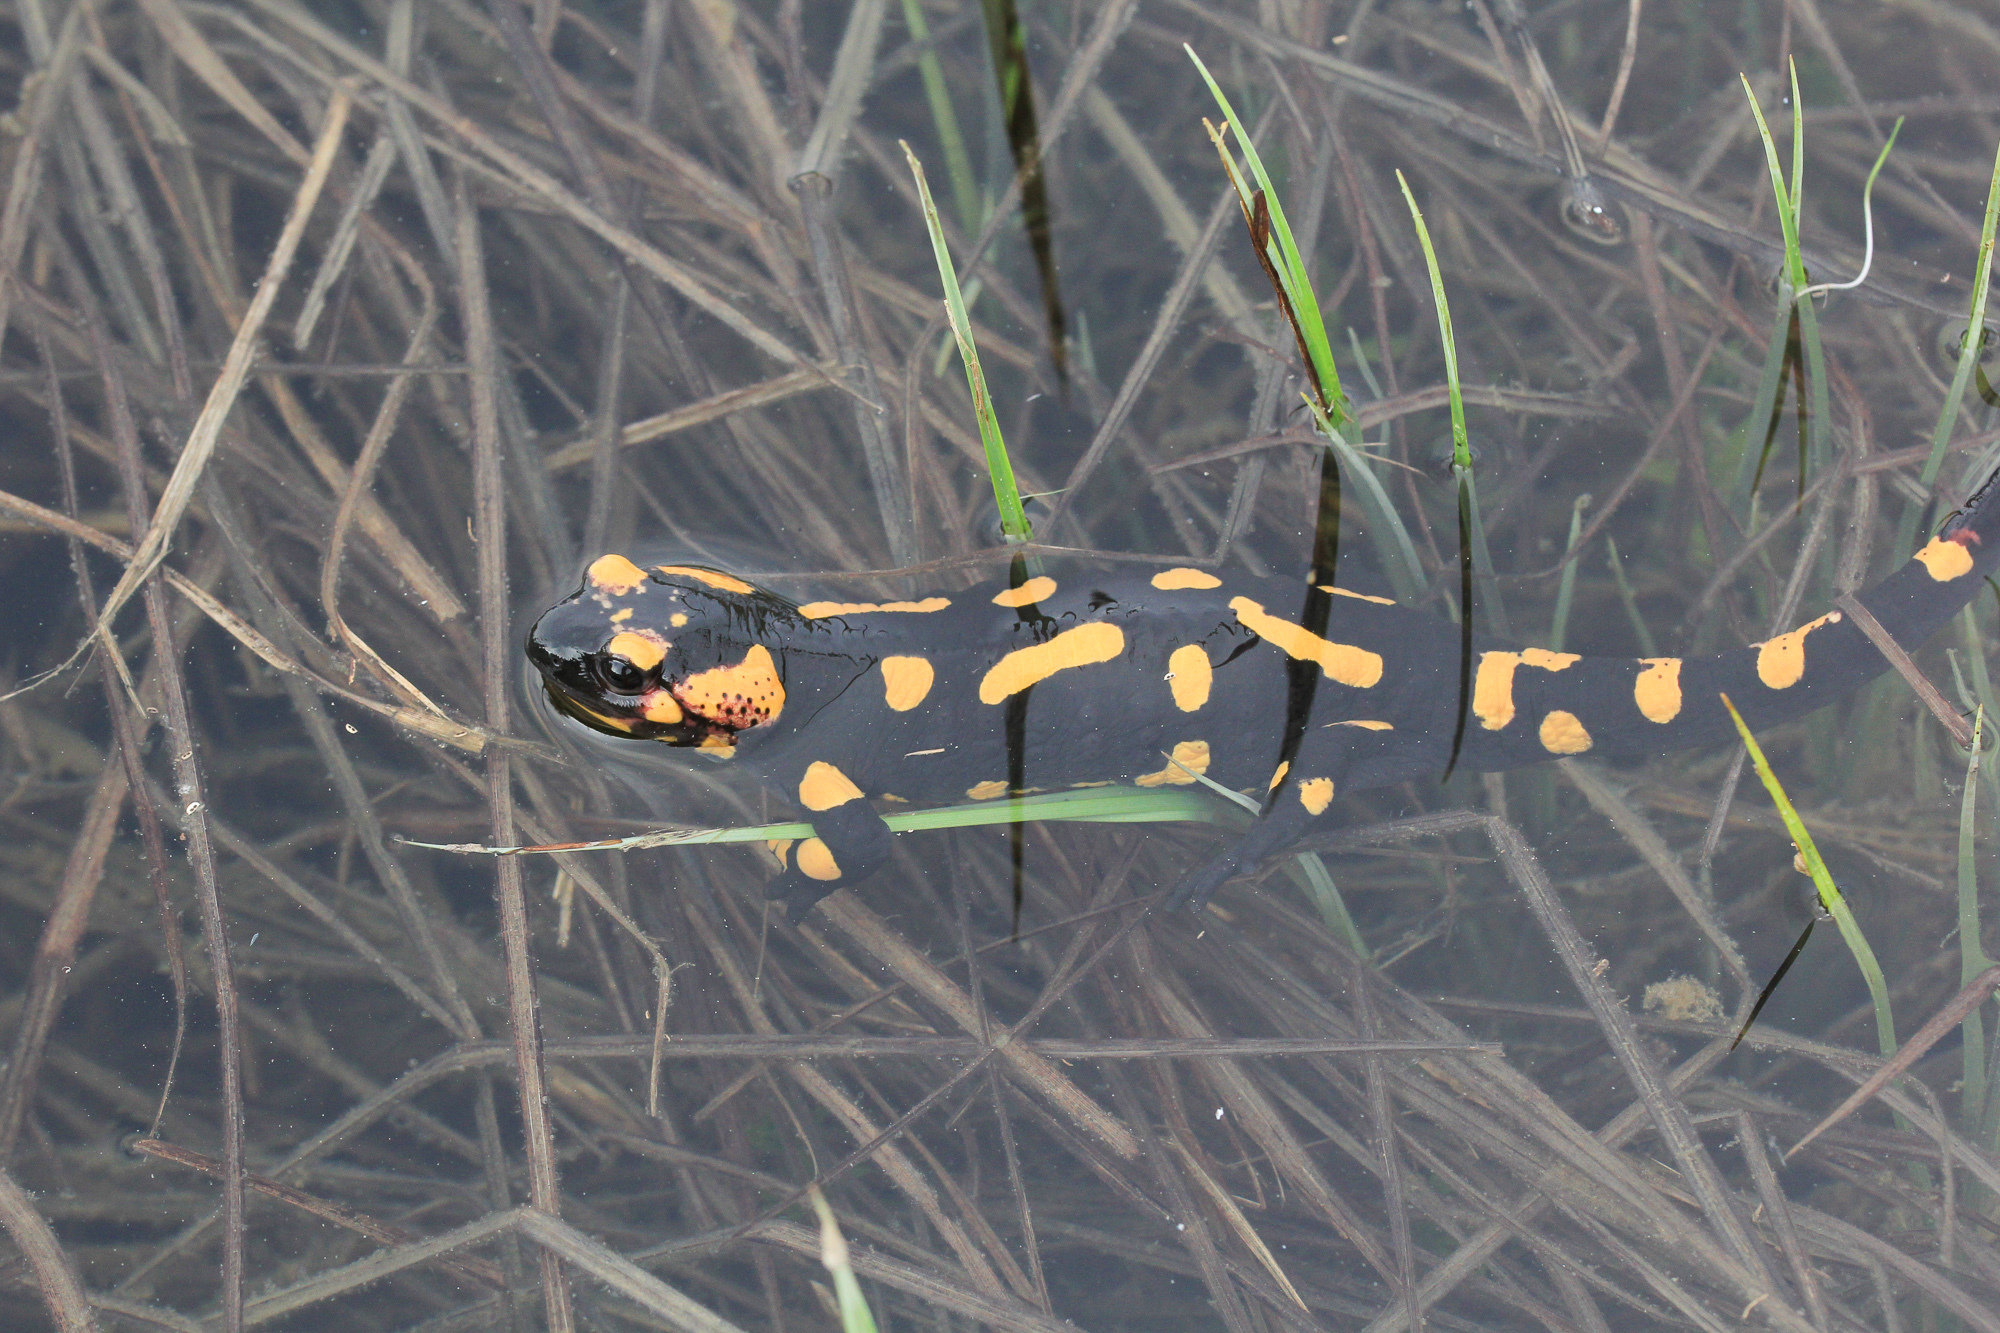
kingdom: Animalia
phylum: Chordata
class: Amphibia
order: Caudata
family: Salamandridae
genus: Salamandra
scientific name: Salamandra salamandra
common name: Fire salamander
